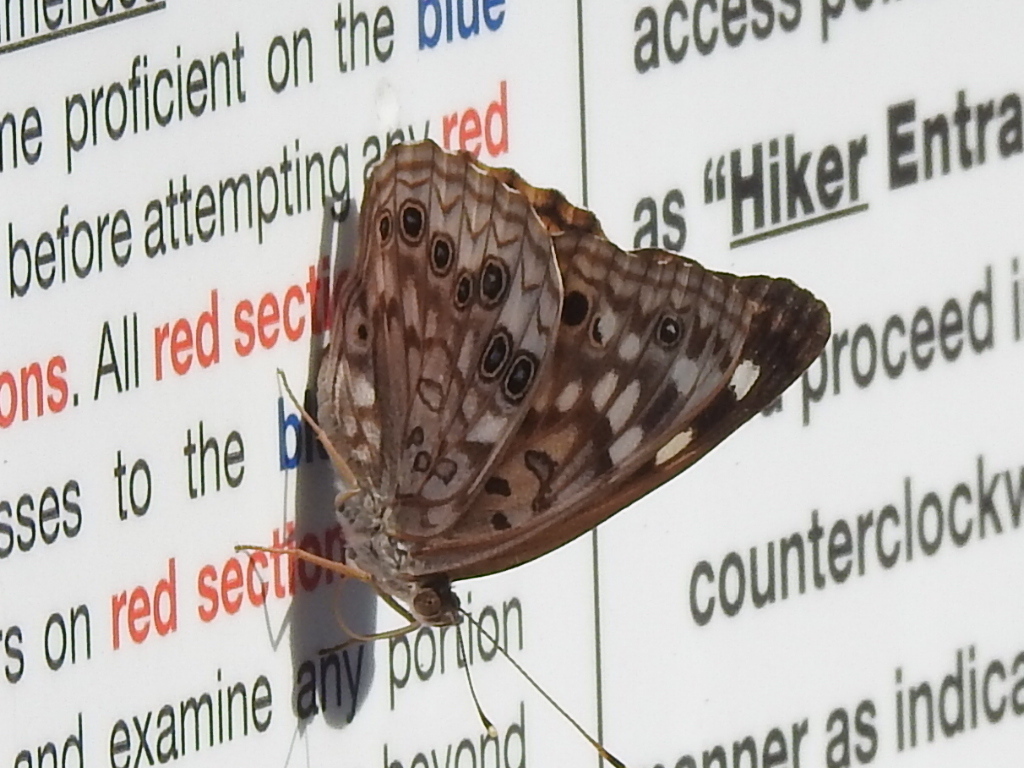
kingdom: Animalia
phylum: Arthropoda
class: Insecta
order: Lepidoptera
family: Nymphalidae
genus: Asterocampa
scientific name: Asterocampa celtis
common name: Hackberry emperor
